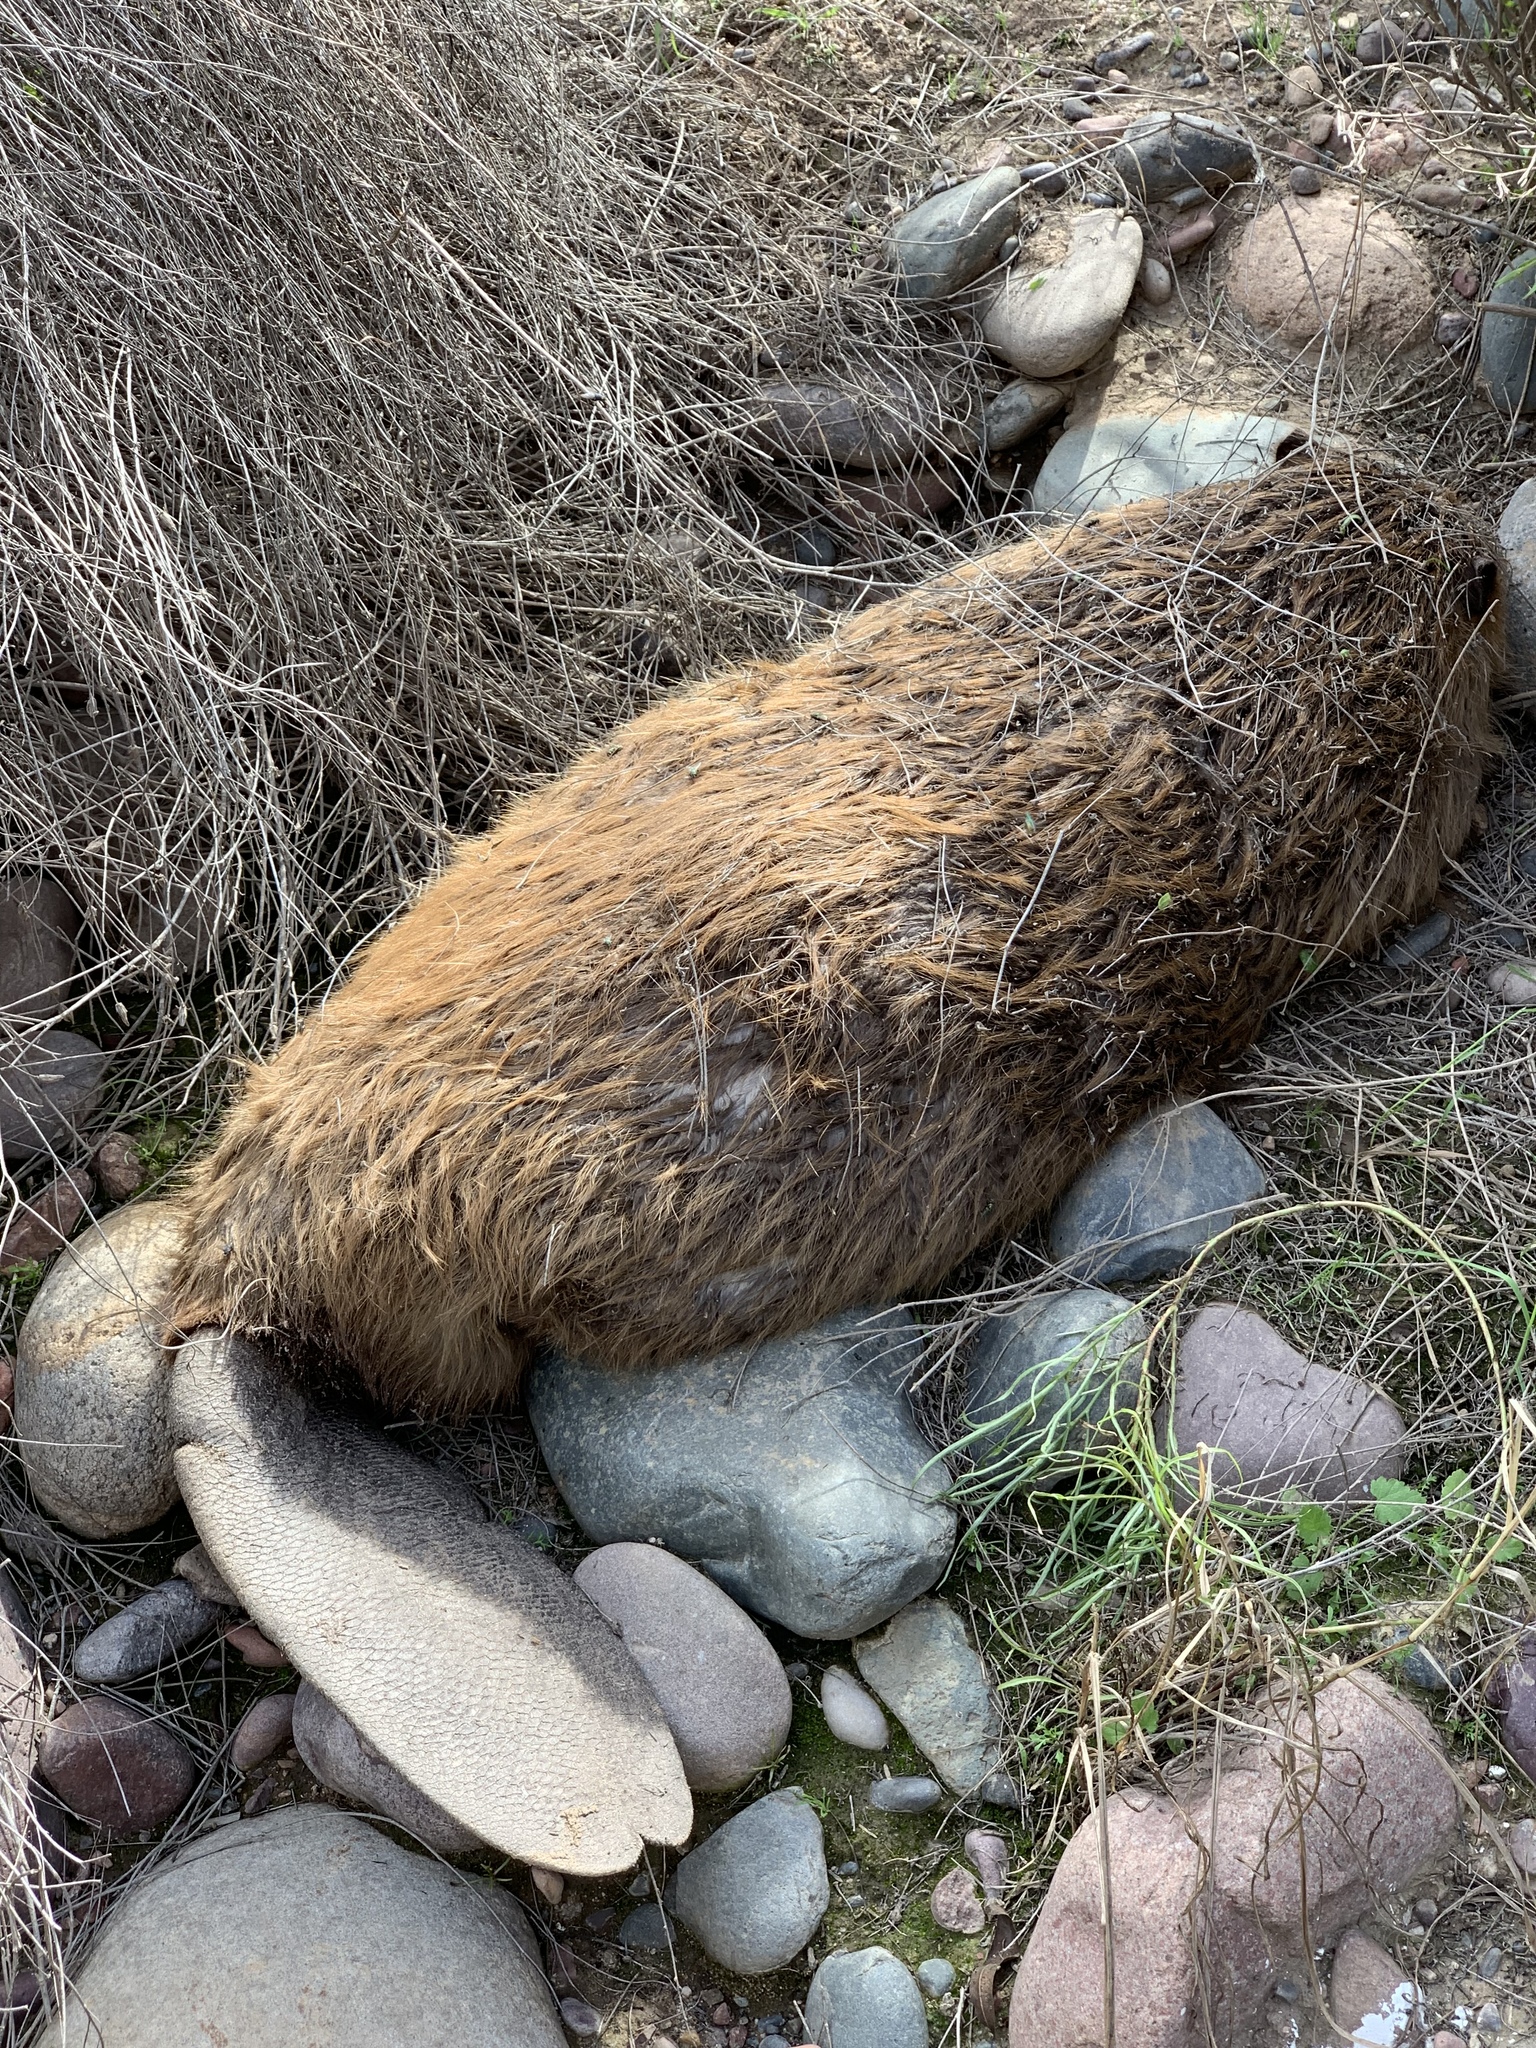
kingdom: Animalia
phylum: Chordata
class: Mammalia
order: Rodentia
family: Castoridae
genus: Castor
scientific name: Castor canadensis
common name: American beaver
